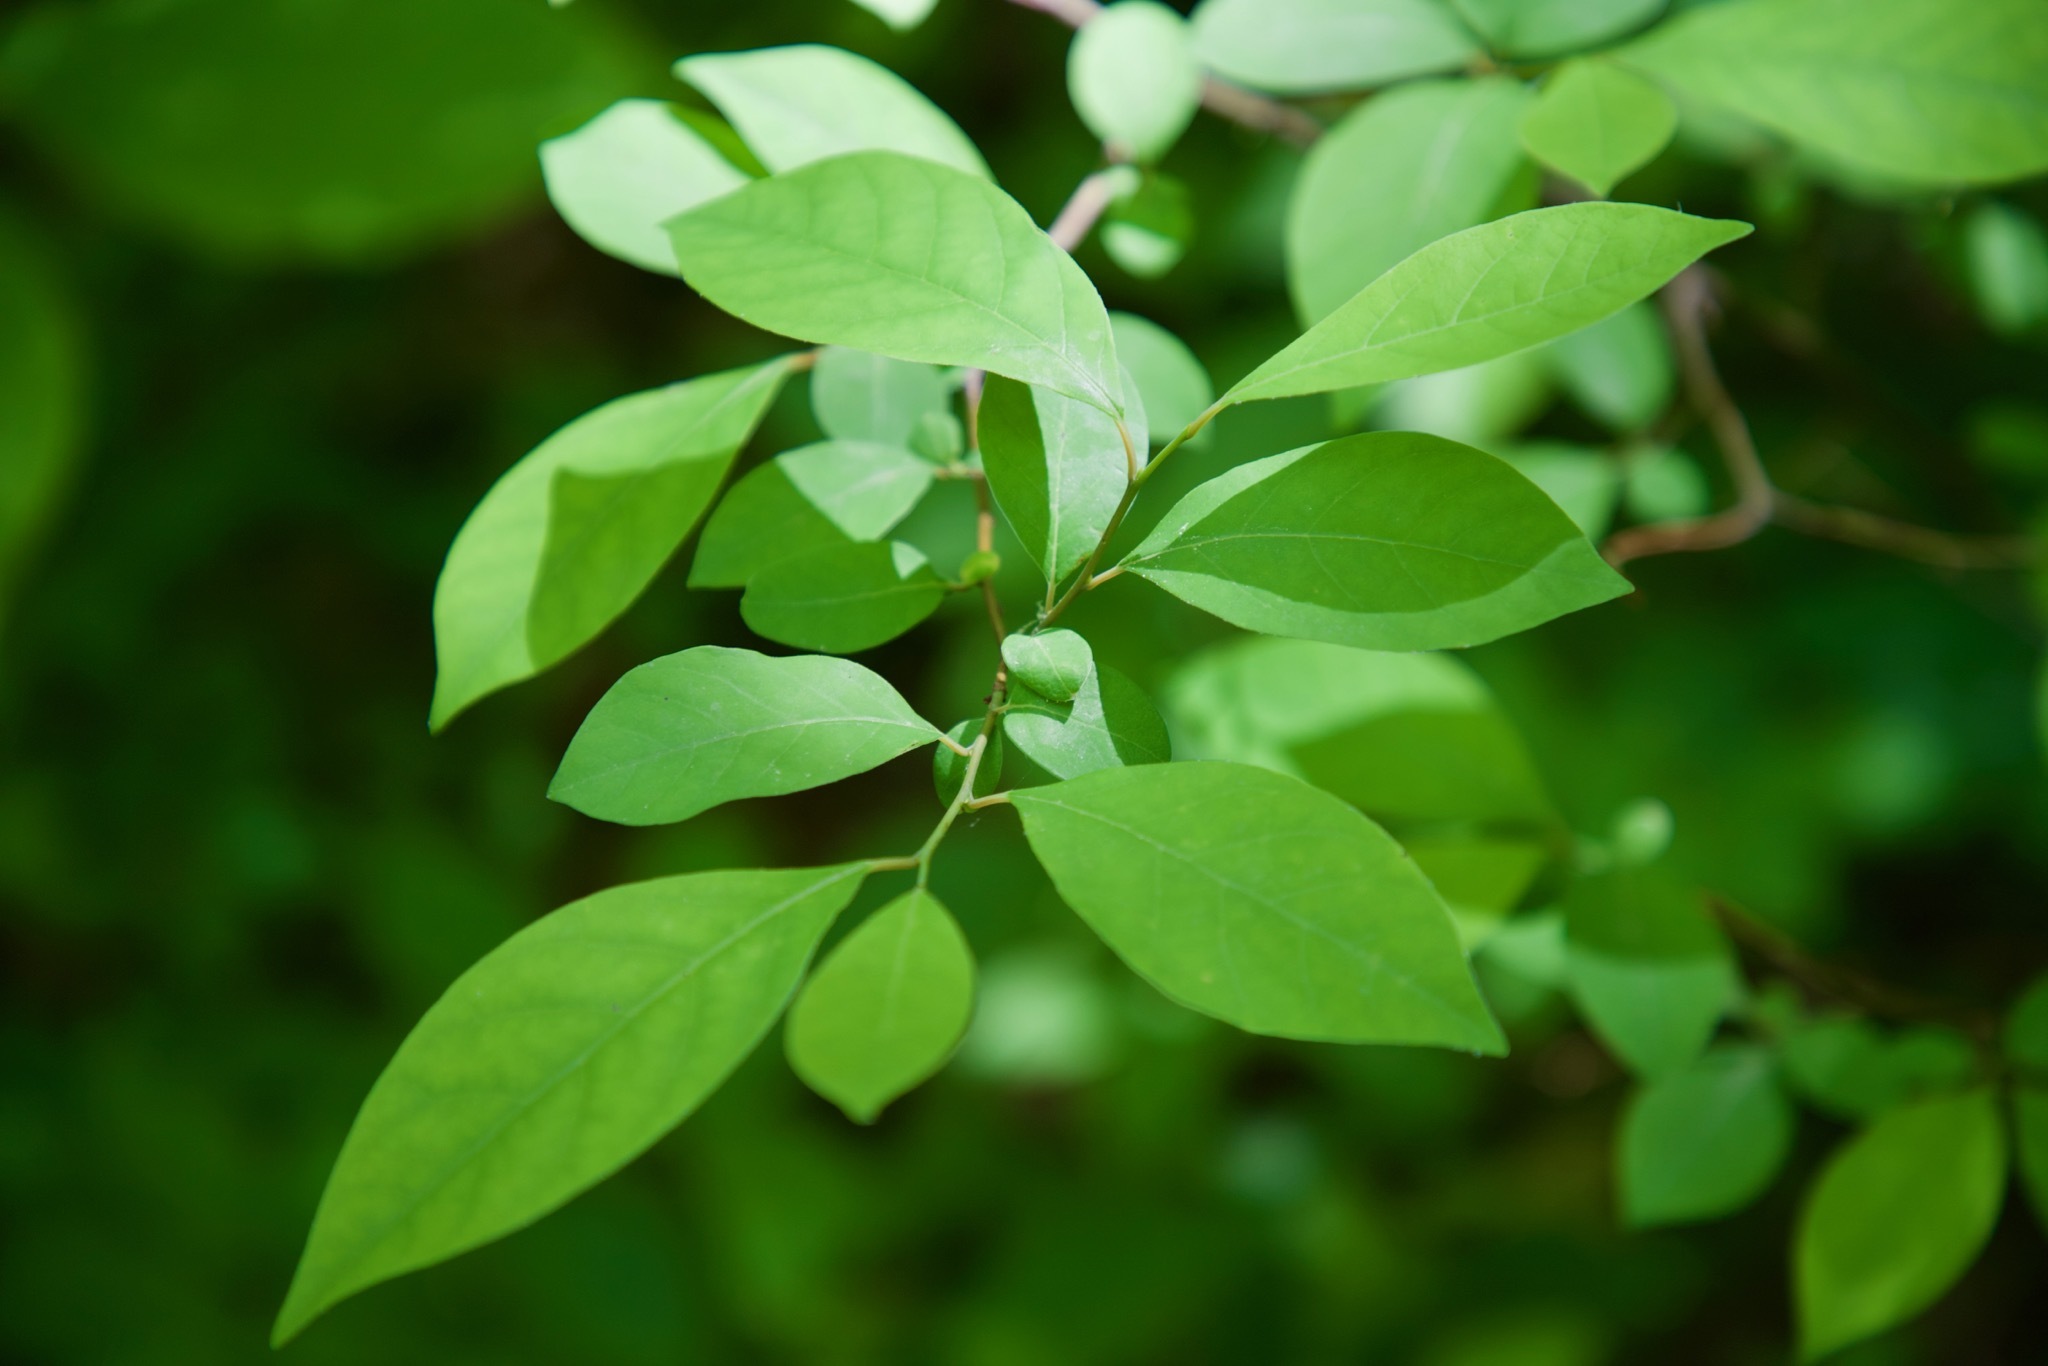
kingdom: Plantae
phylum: Tracheophyta
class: Magnoliopsida
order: Laurales
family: Lauraceae
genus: Lindera
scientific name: Lindera benzoin
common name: Spicebush
